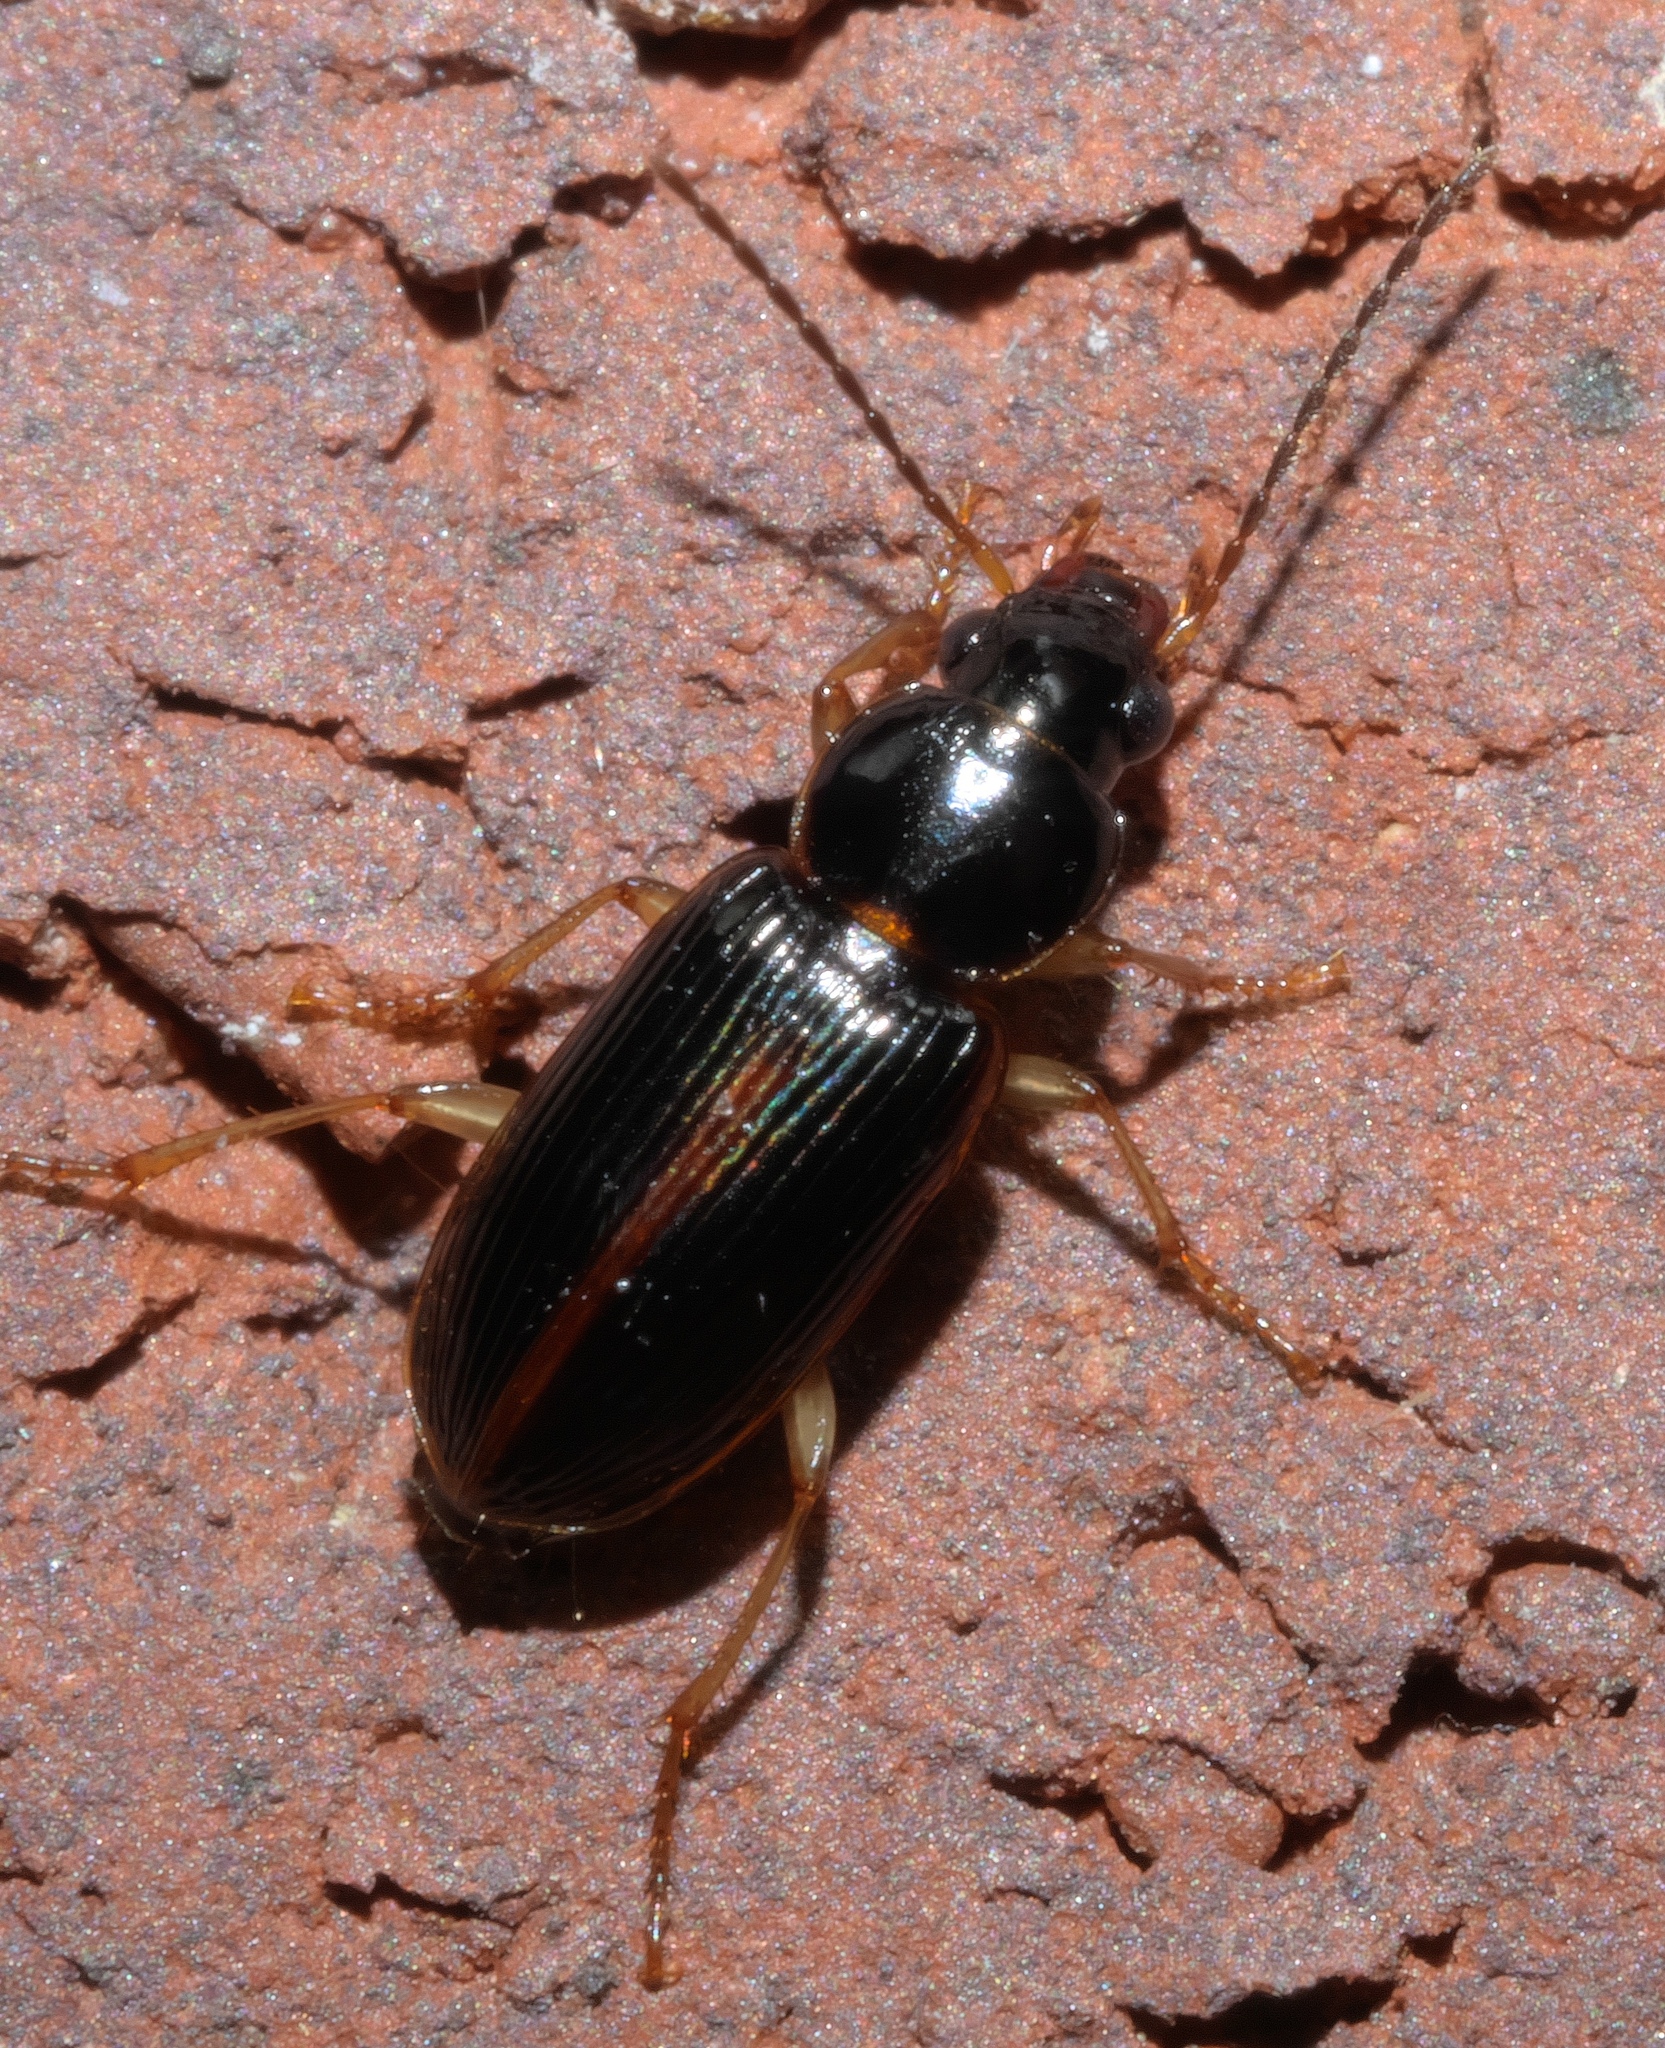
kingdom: Animalia
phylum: Arthropoda
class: Insecta
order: Coleoptera
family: Carabidae
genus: Stenolophus
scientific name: Stenolophus ochropezus
